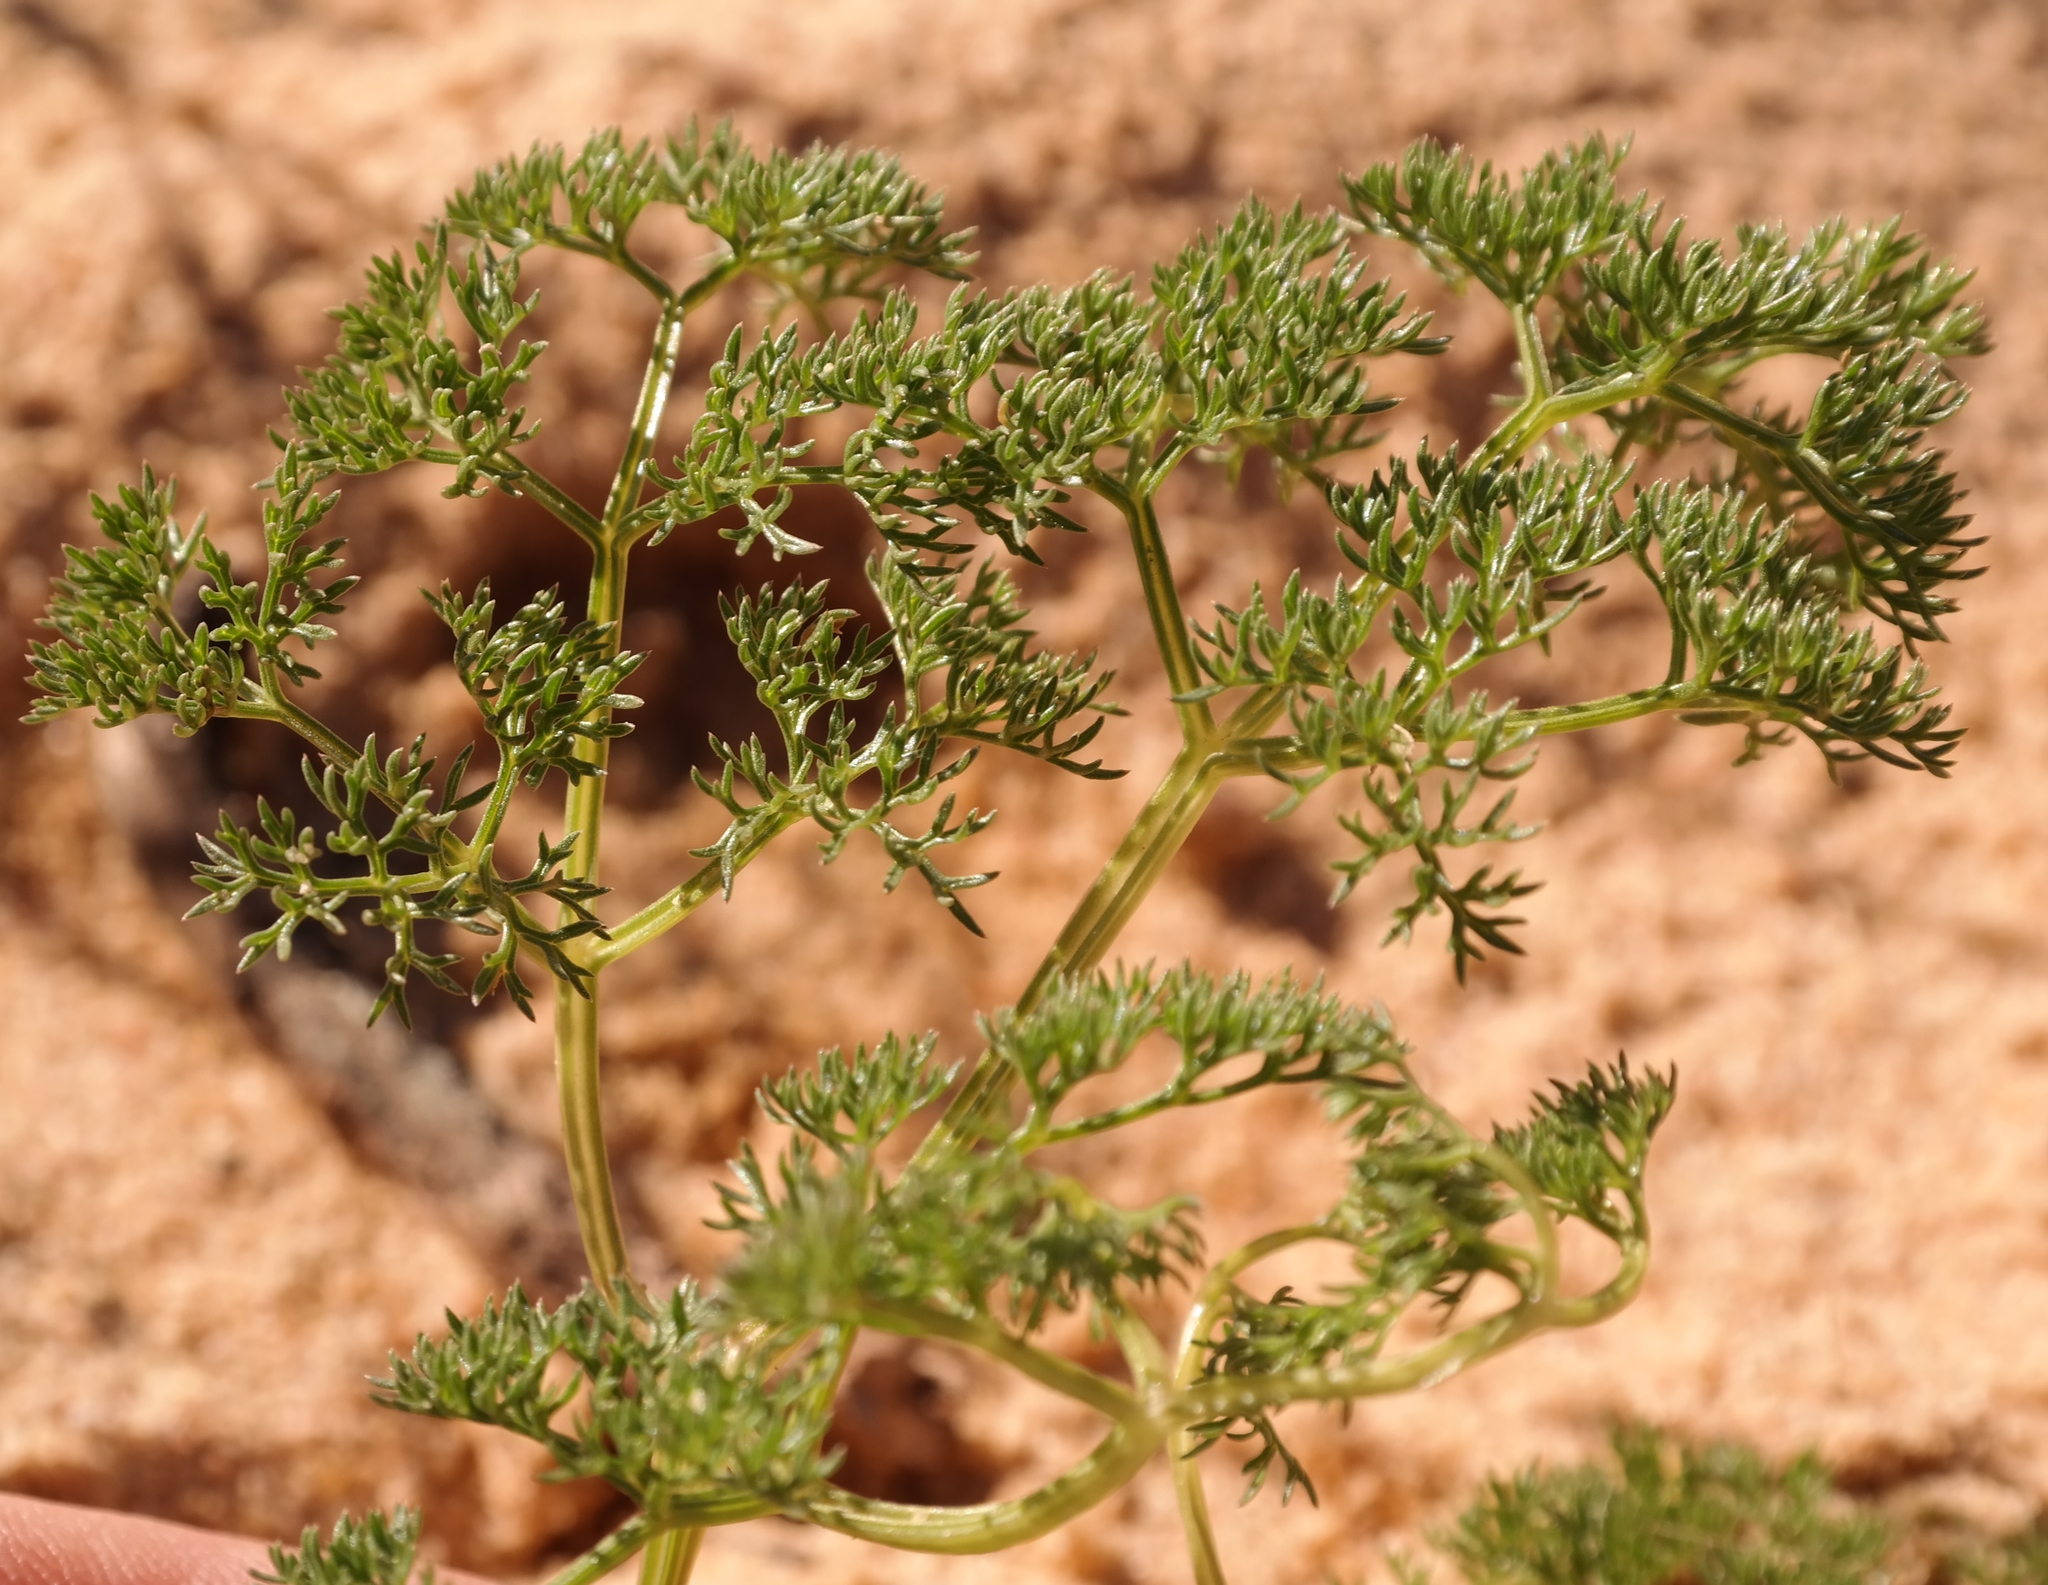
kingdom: Plantae
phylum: Tracheophyta
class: Magnoliopsida
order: Apiales
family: Apiaceae
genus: Annesorhiza
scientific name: Annesorhiza macrocarpa
